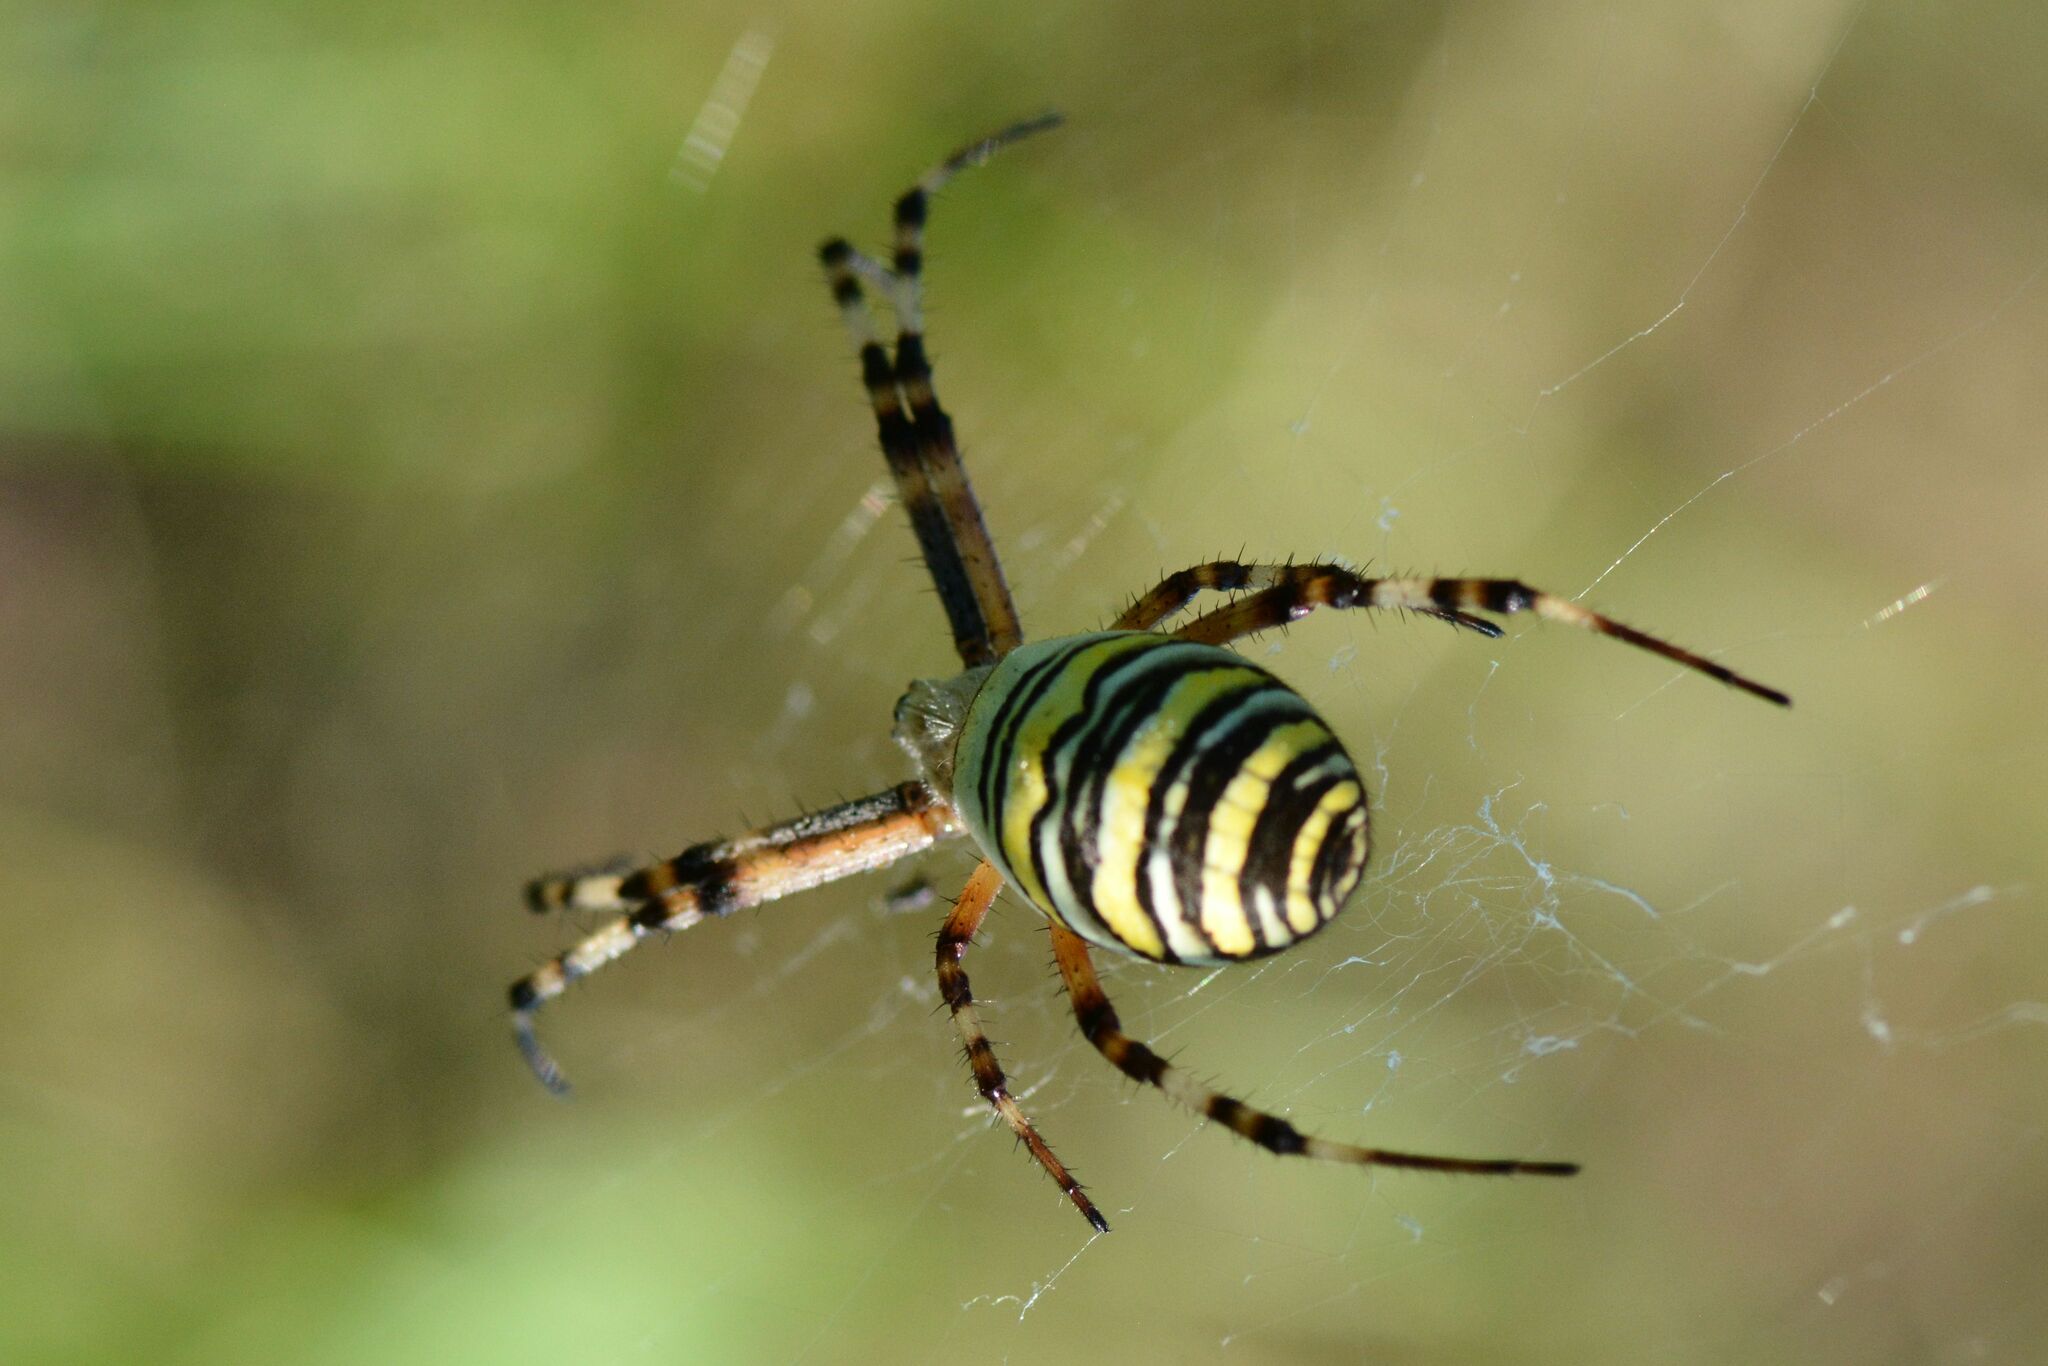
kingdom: Animalia
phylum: Arthropoda
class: Arachnida
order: Araneae
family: Araneidae
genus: Argiope
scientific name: Argiope bruennichi
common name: Wasp spider
